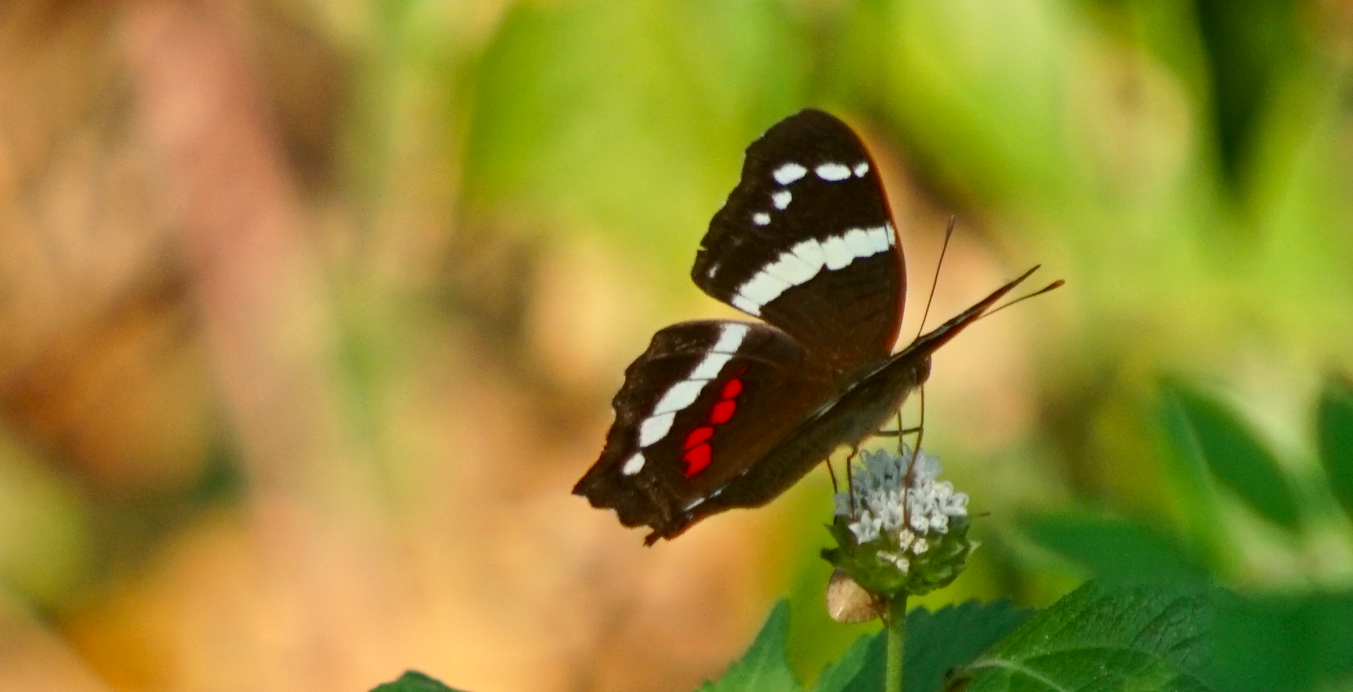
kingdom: Animalia
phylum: Arthropoda
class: Insecta
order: Lepidoptera
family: Nymphalidae
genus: Anartia
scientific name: Anartia fatima
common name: Banded peacock
